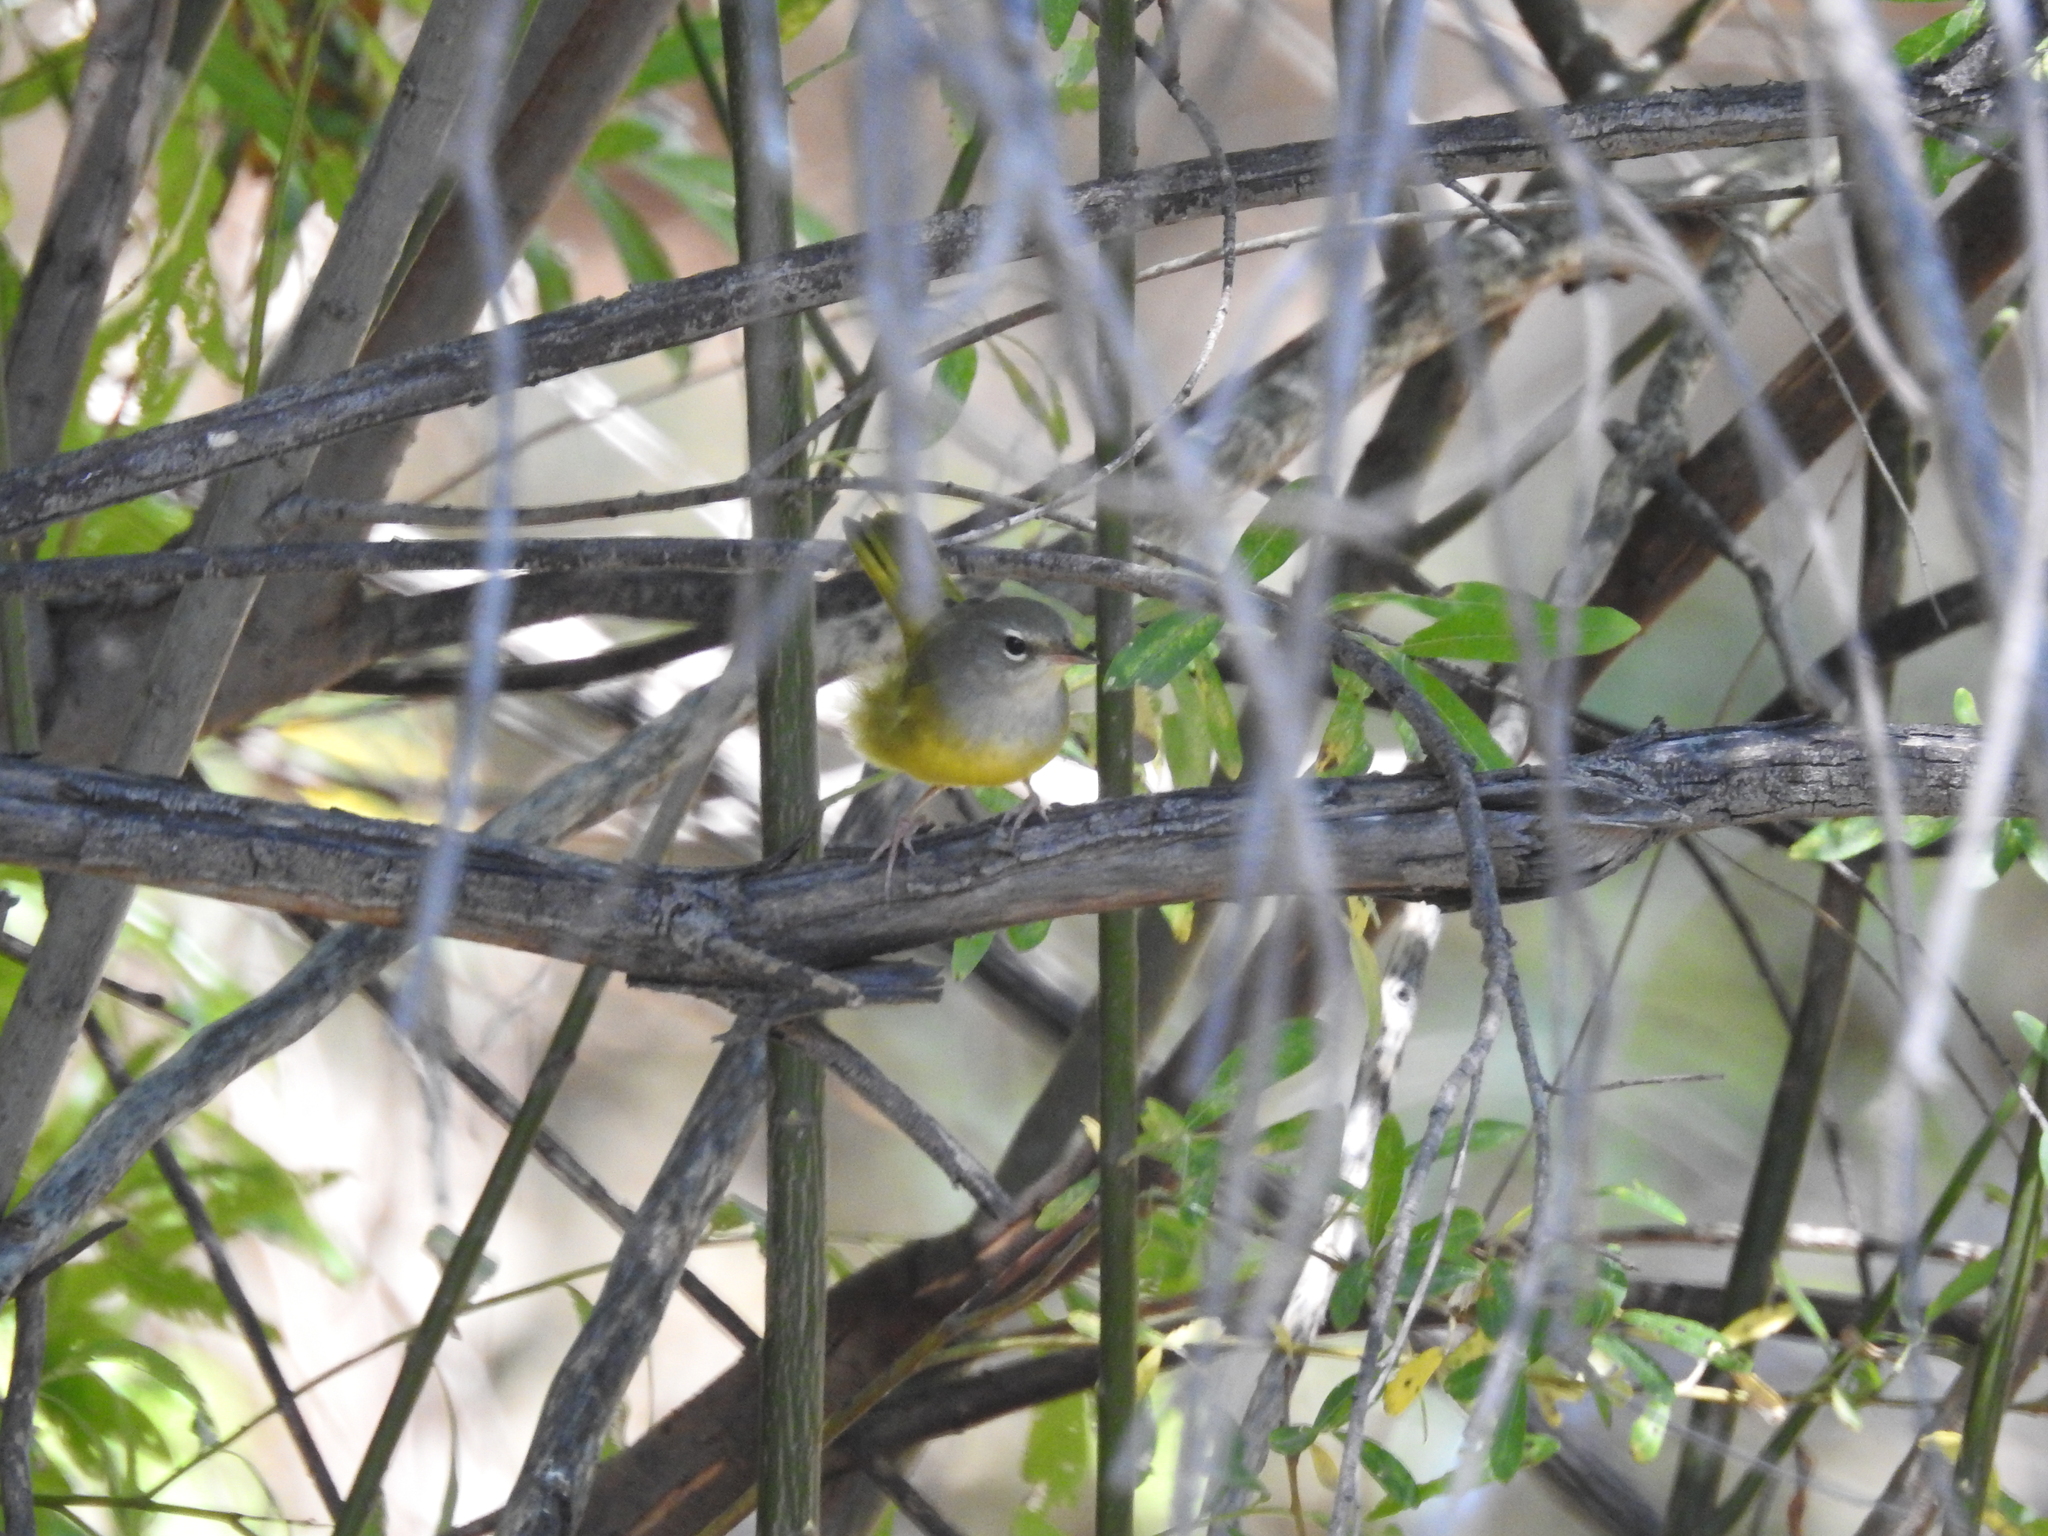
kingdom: Animalia
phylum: Chordata
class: Aves
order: Passeriformes
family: Parulidae
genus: Geothlypis
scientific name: Geothlypis tolmiei
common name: Macgillivray's warbler
